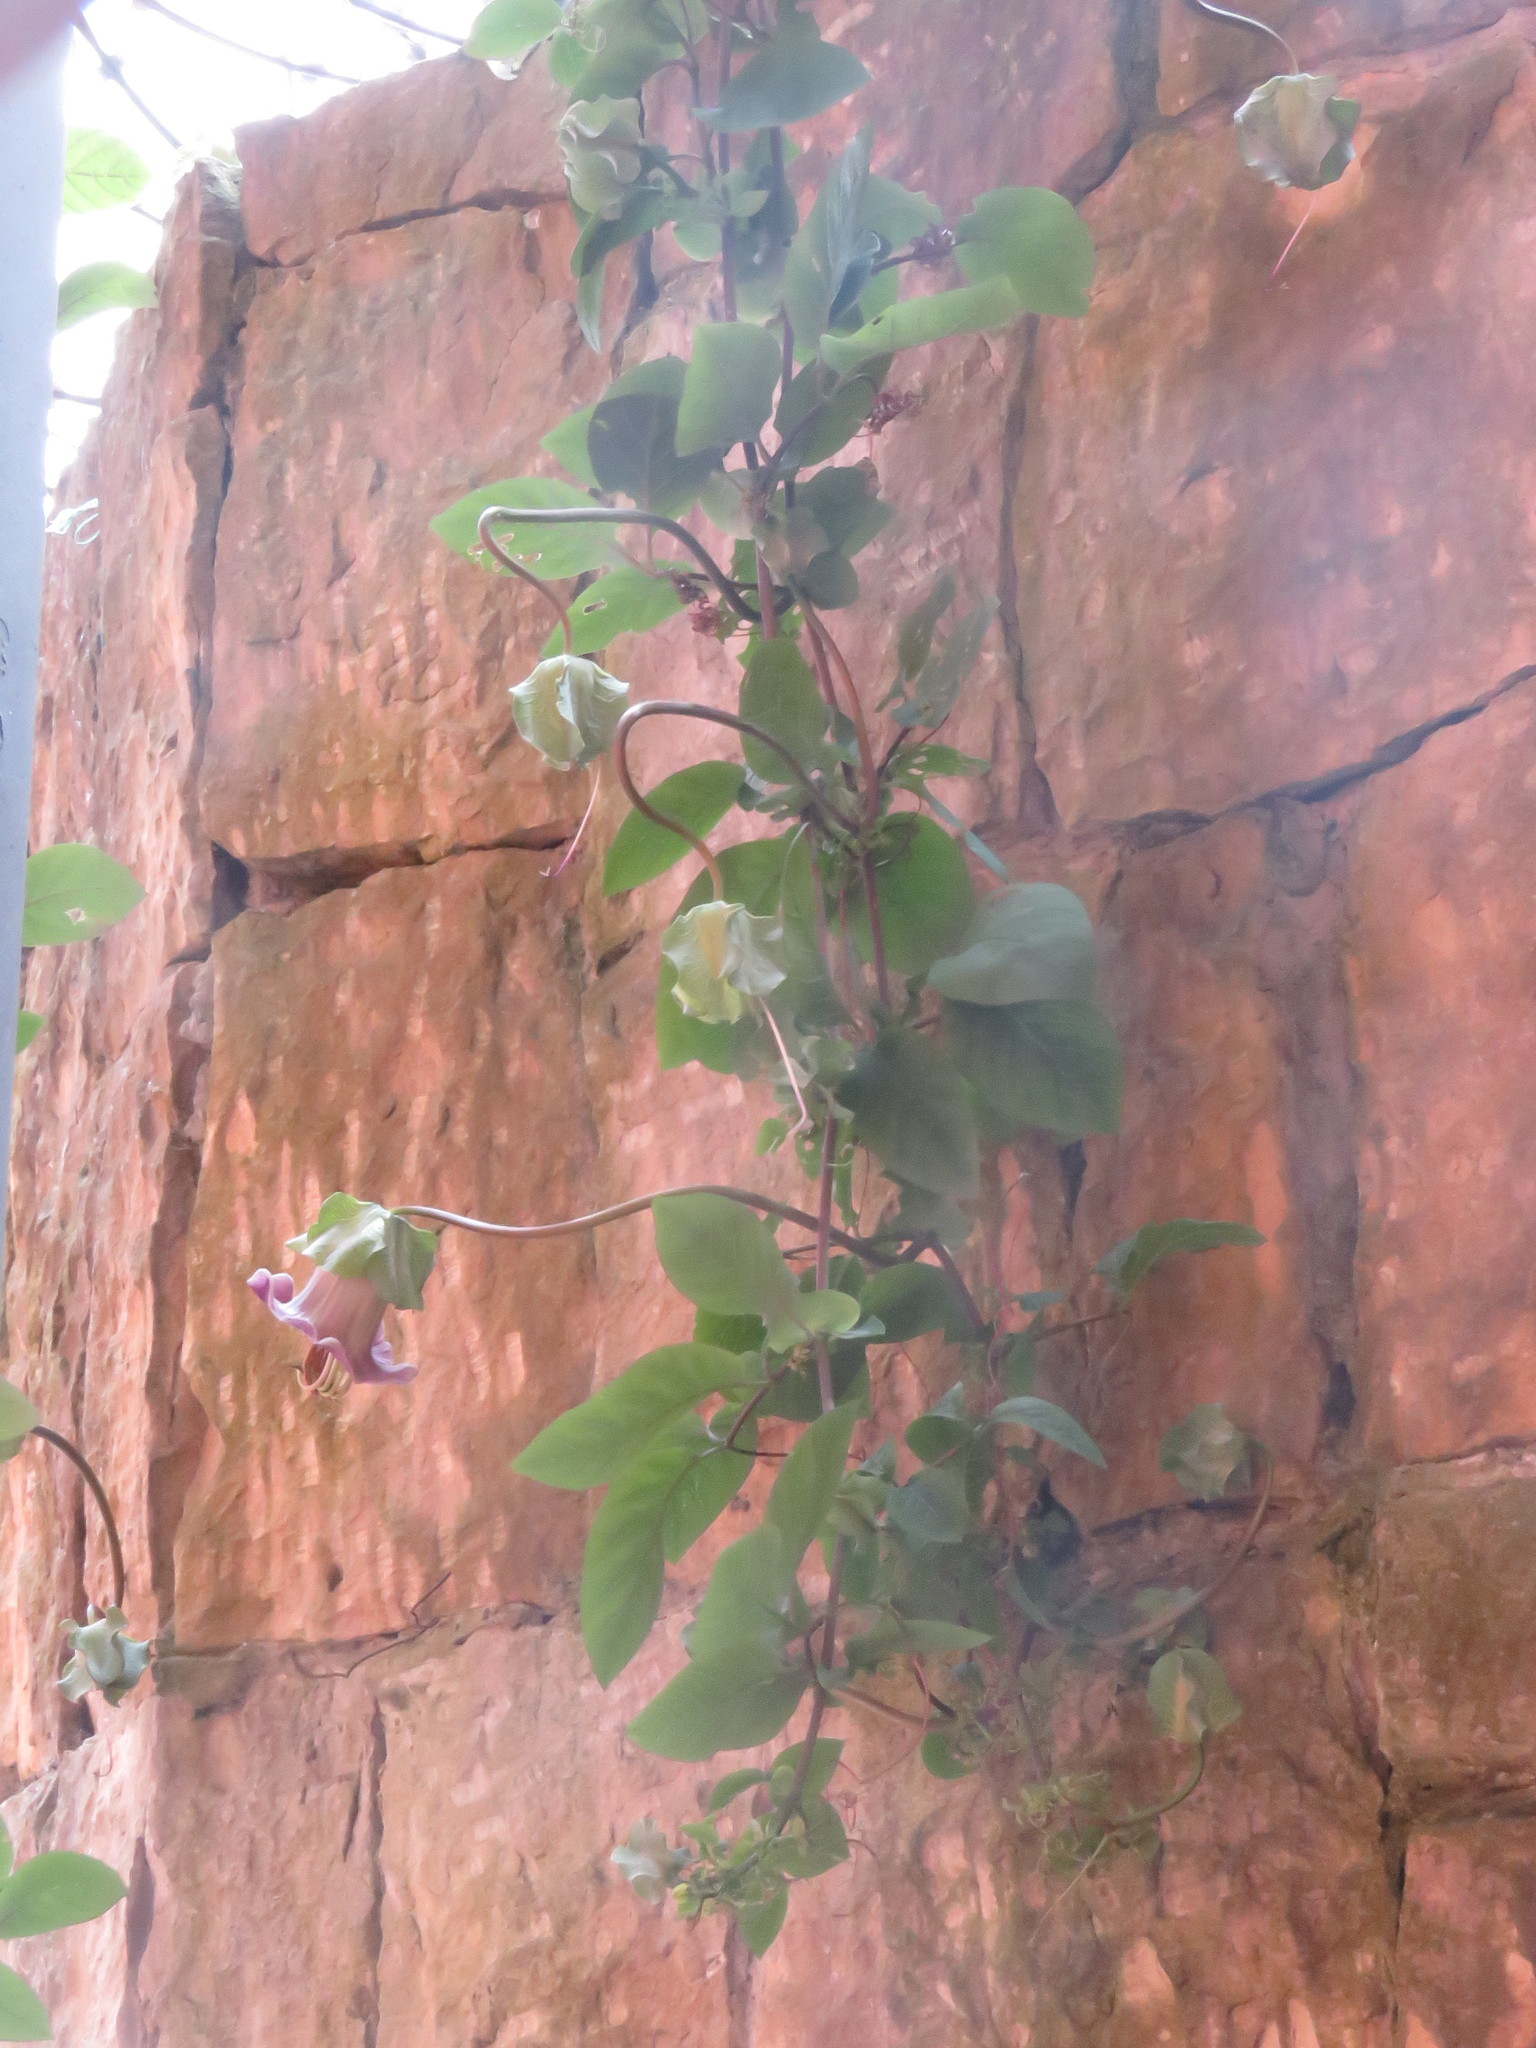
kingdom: Plantae
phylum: Tracheophyta
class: Magnoliopsida
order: Ericales
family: Polemoniaceae
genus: Cobaea
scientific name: Cobaea scandens
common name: Cup-and-saucer-vine
